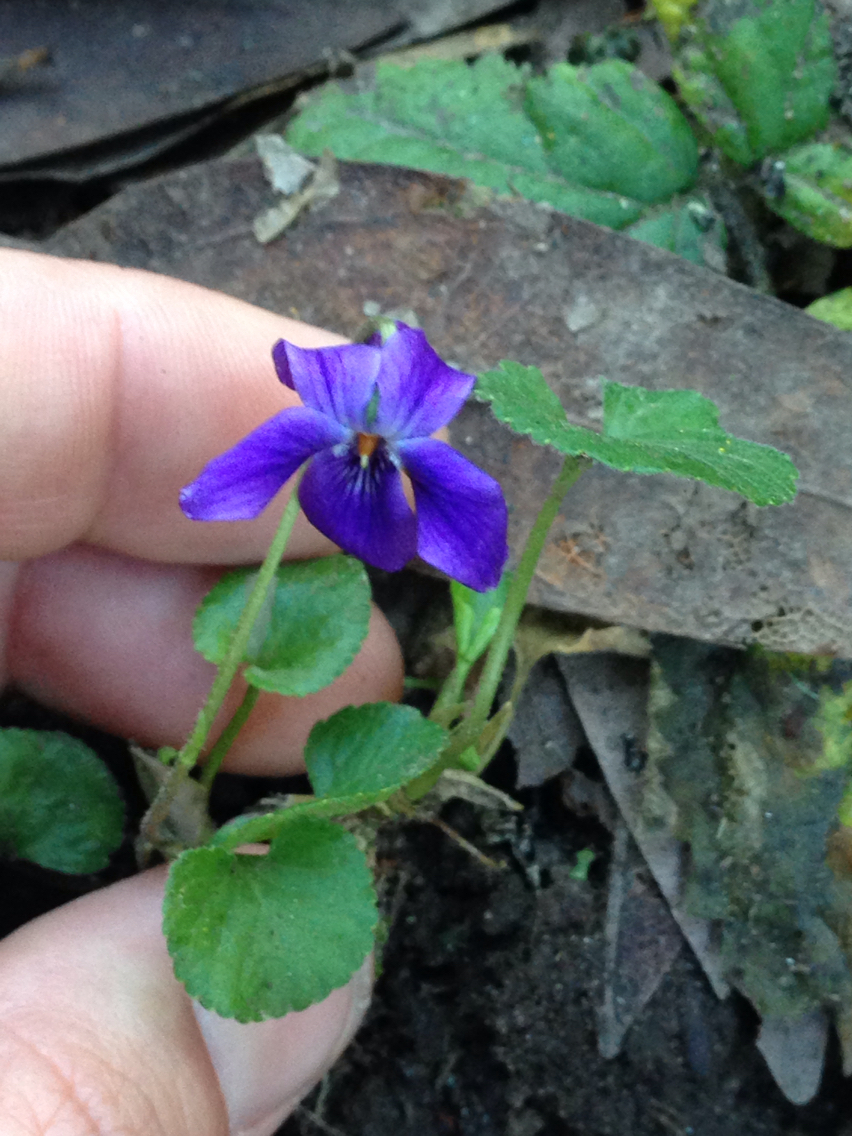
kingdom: Plantae
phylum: Tracheophyta
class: Magnoliopsida
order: Malpighiales
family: Violaceae
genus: Viola
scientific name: Viola odorata
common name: Sweet violet
